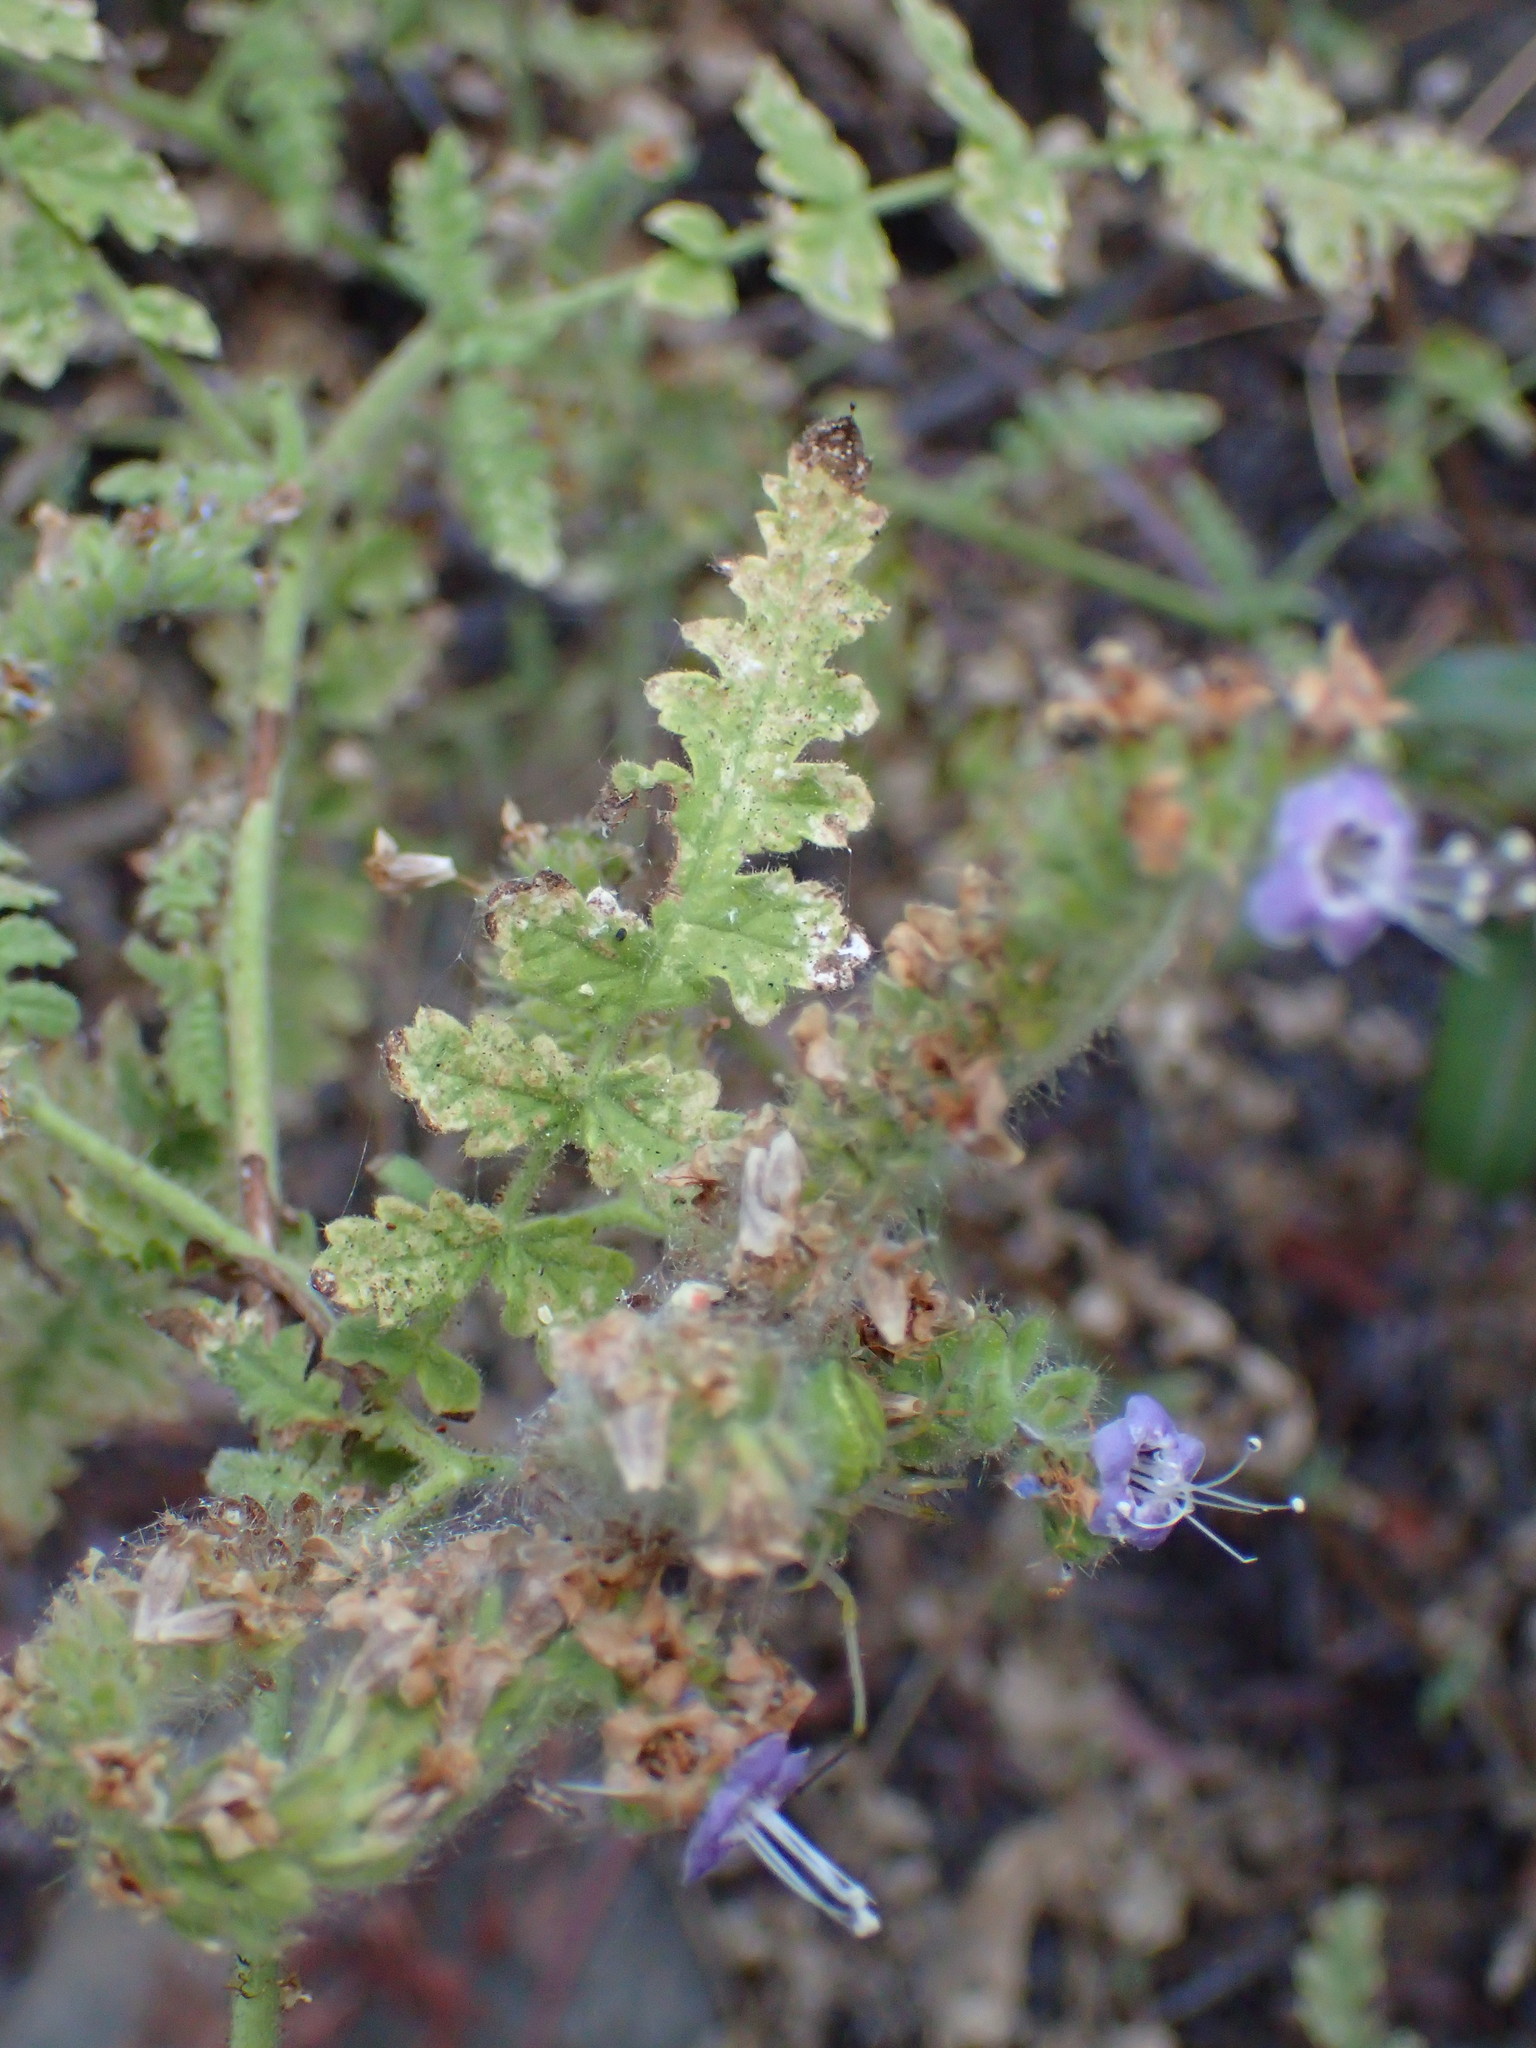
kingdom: Plantae
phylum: Tracheophyta
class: Magnoliopsida
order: Boraginales
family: Hydrophyllaceae
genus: Phacelia
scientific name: Phacelia ramosissima
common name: Branching phacelia
